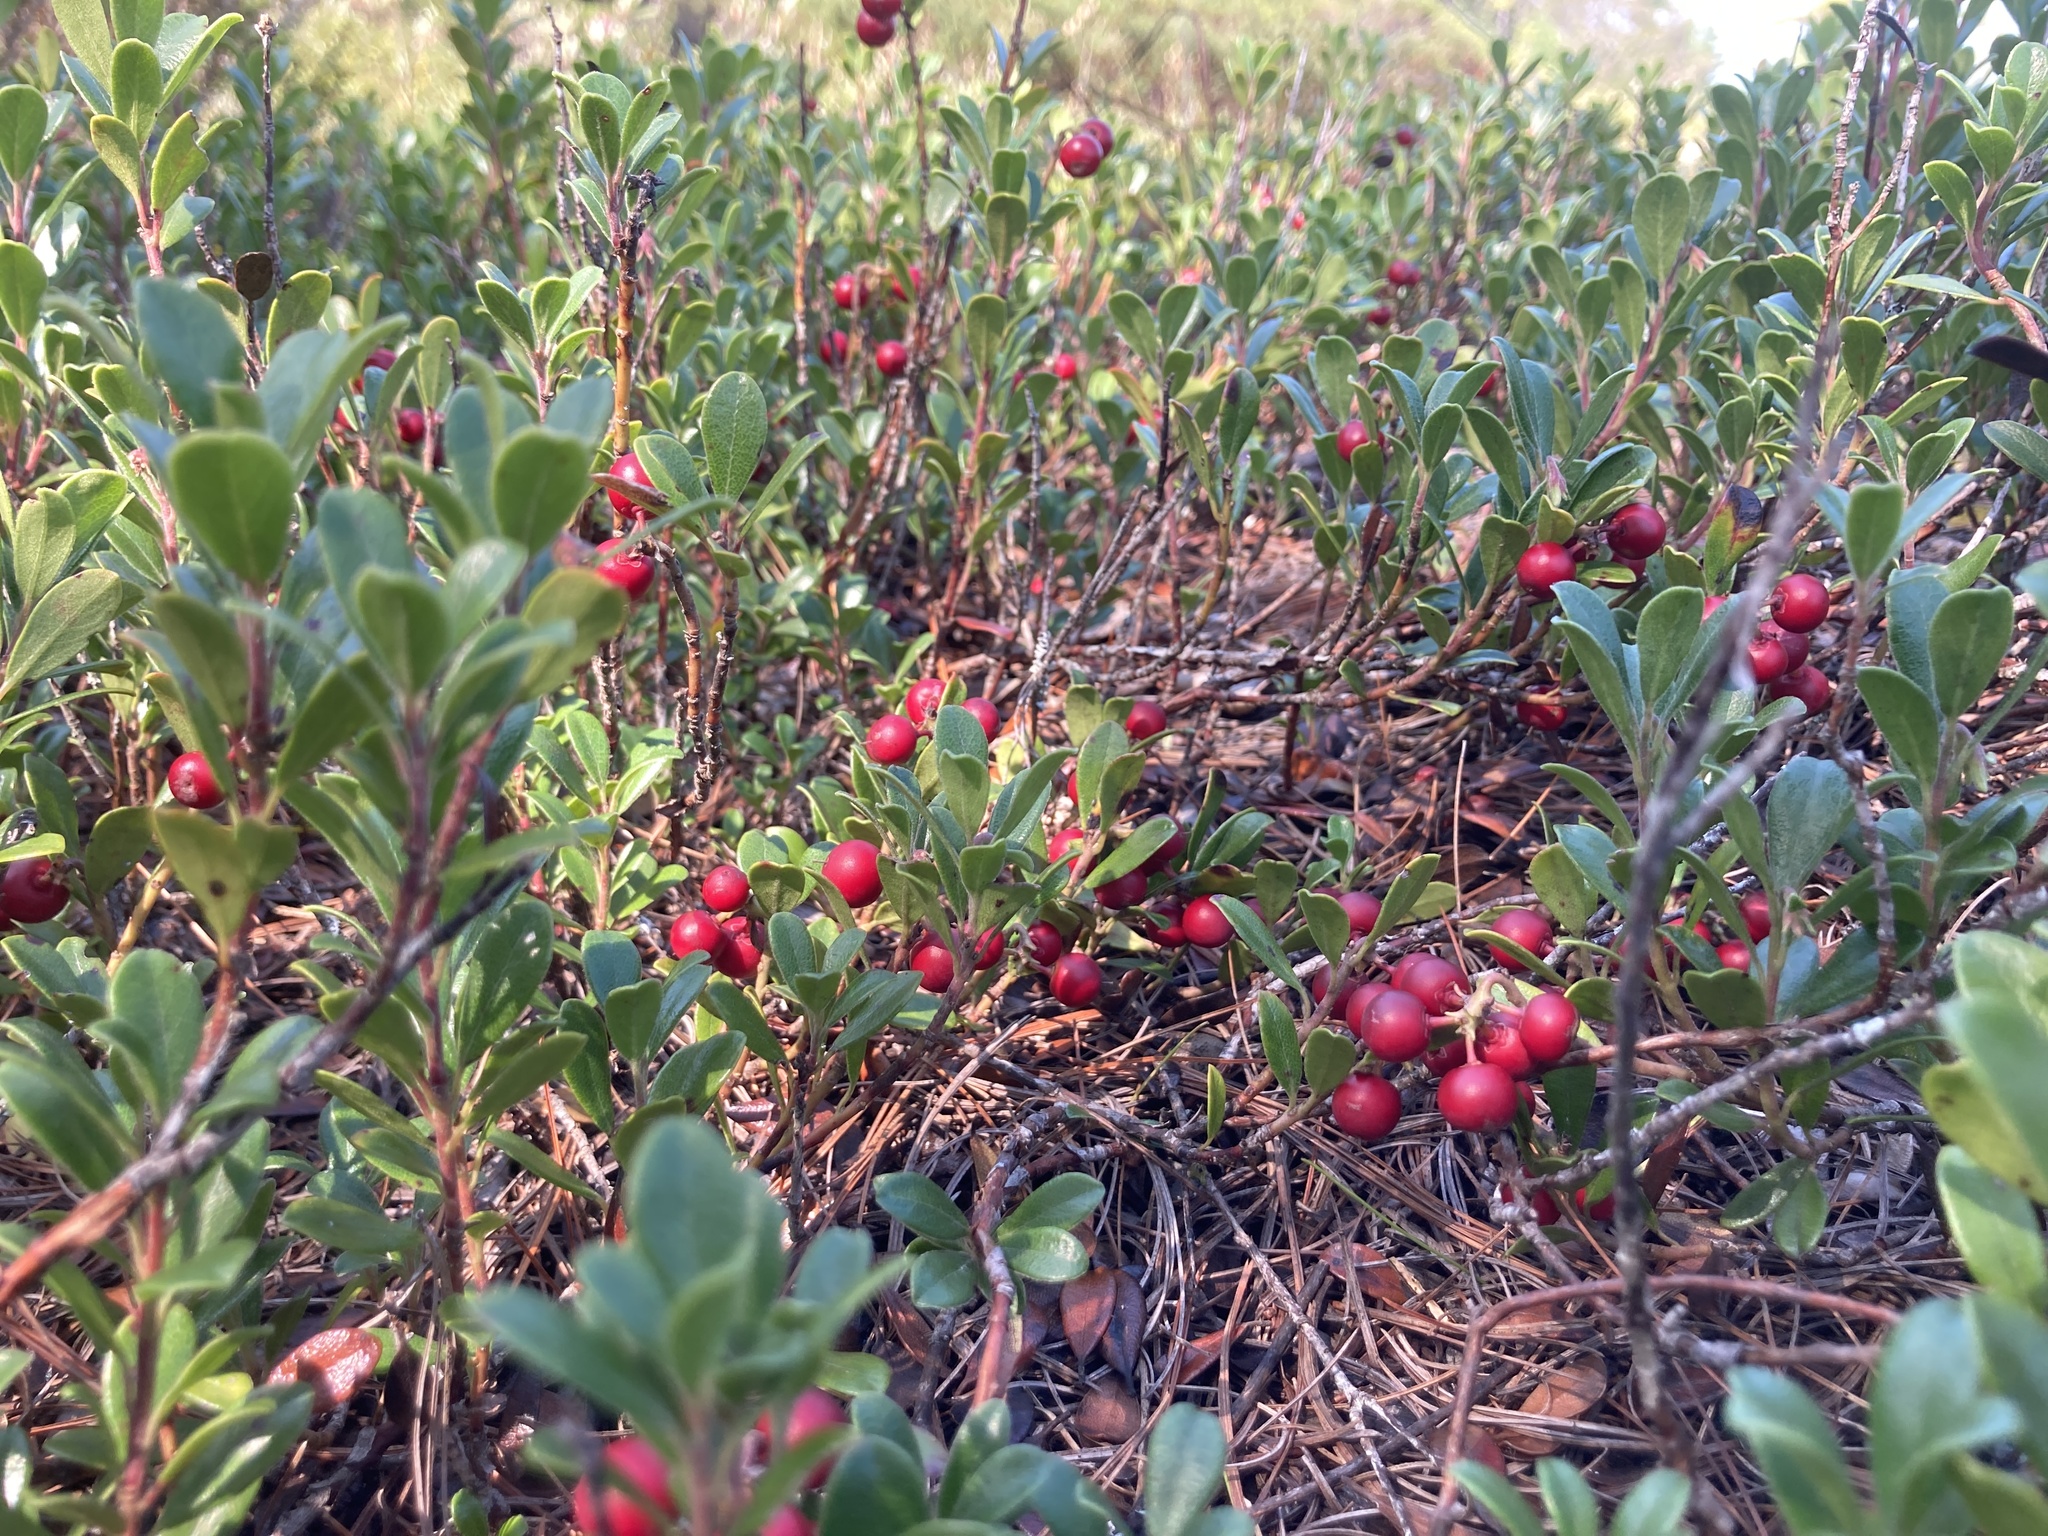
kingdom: Plantae
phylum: Tracheophyta
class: Magnoliopsida
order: Ericales
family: Ericaceae
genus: Arctostaphylos
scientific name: Arctostaphylos uva-ursi
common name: Bearberry
